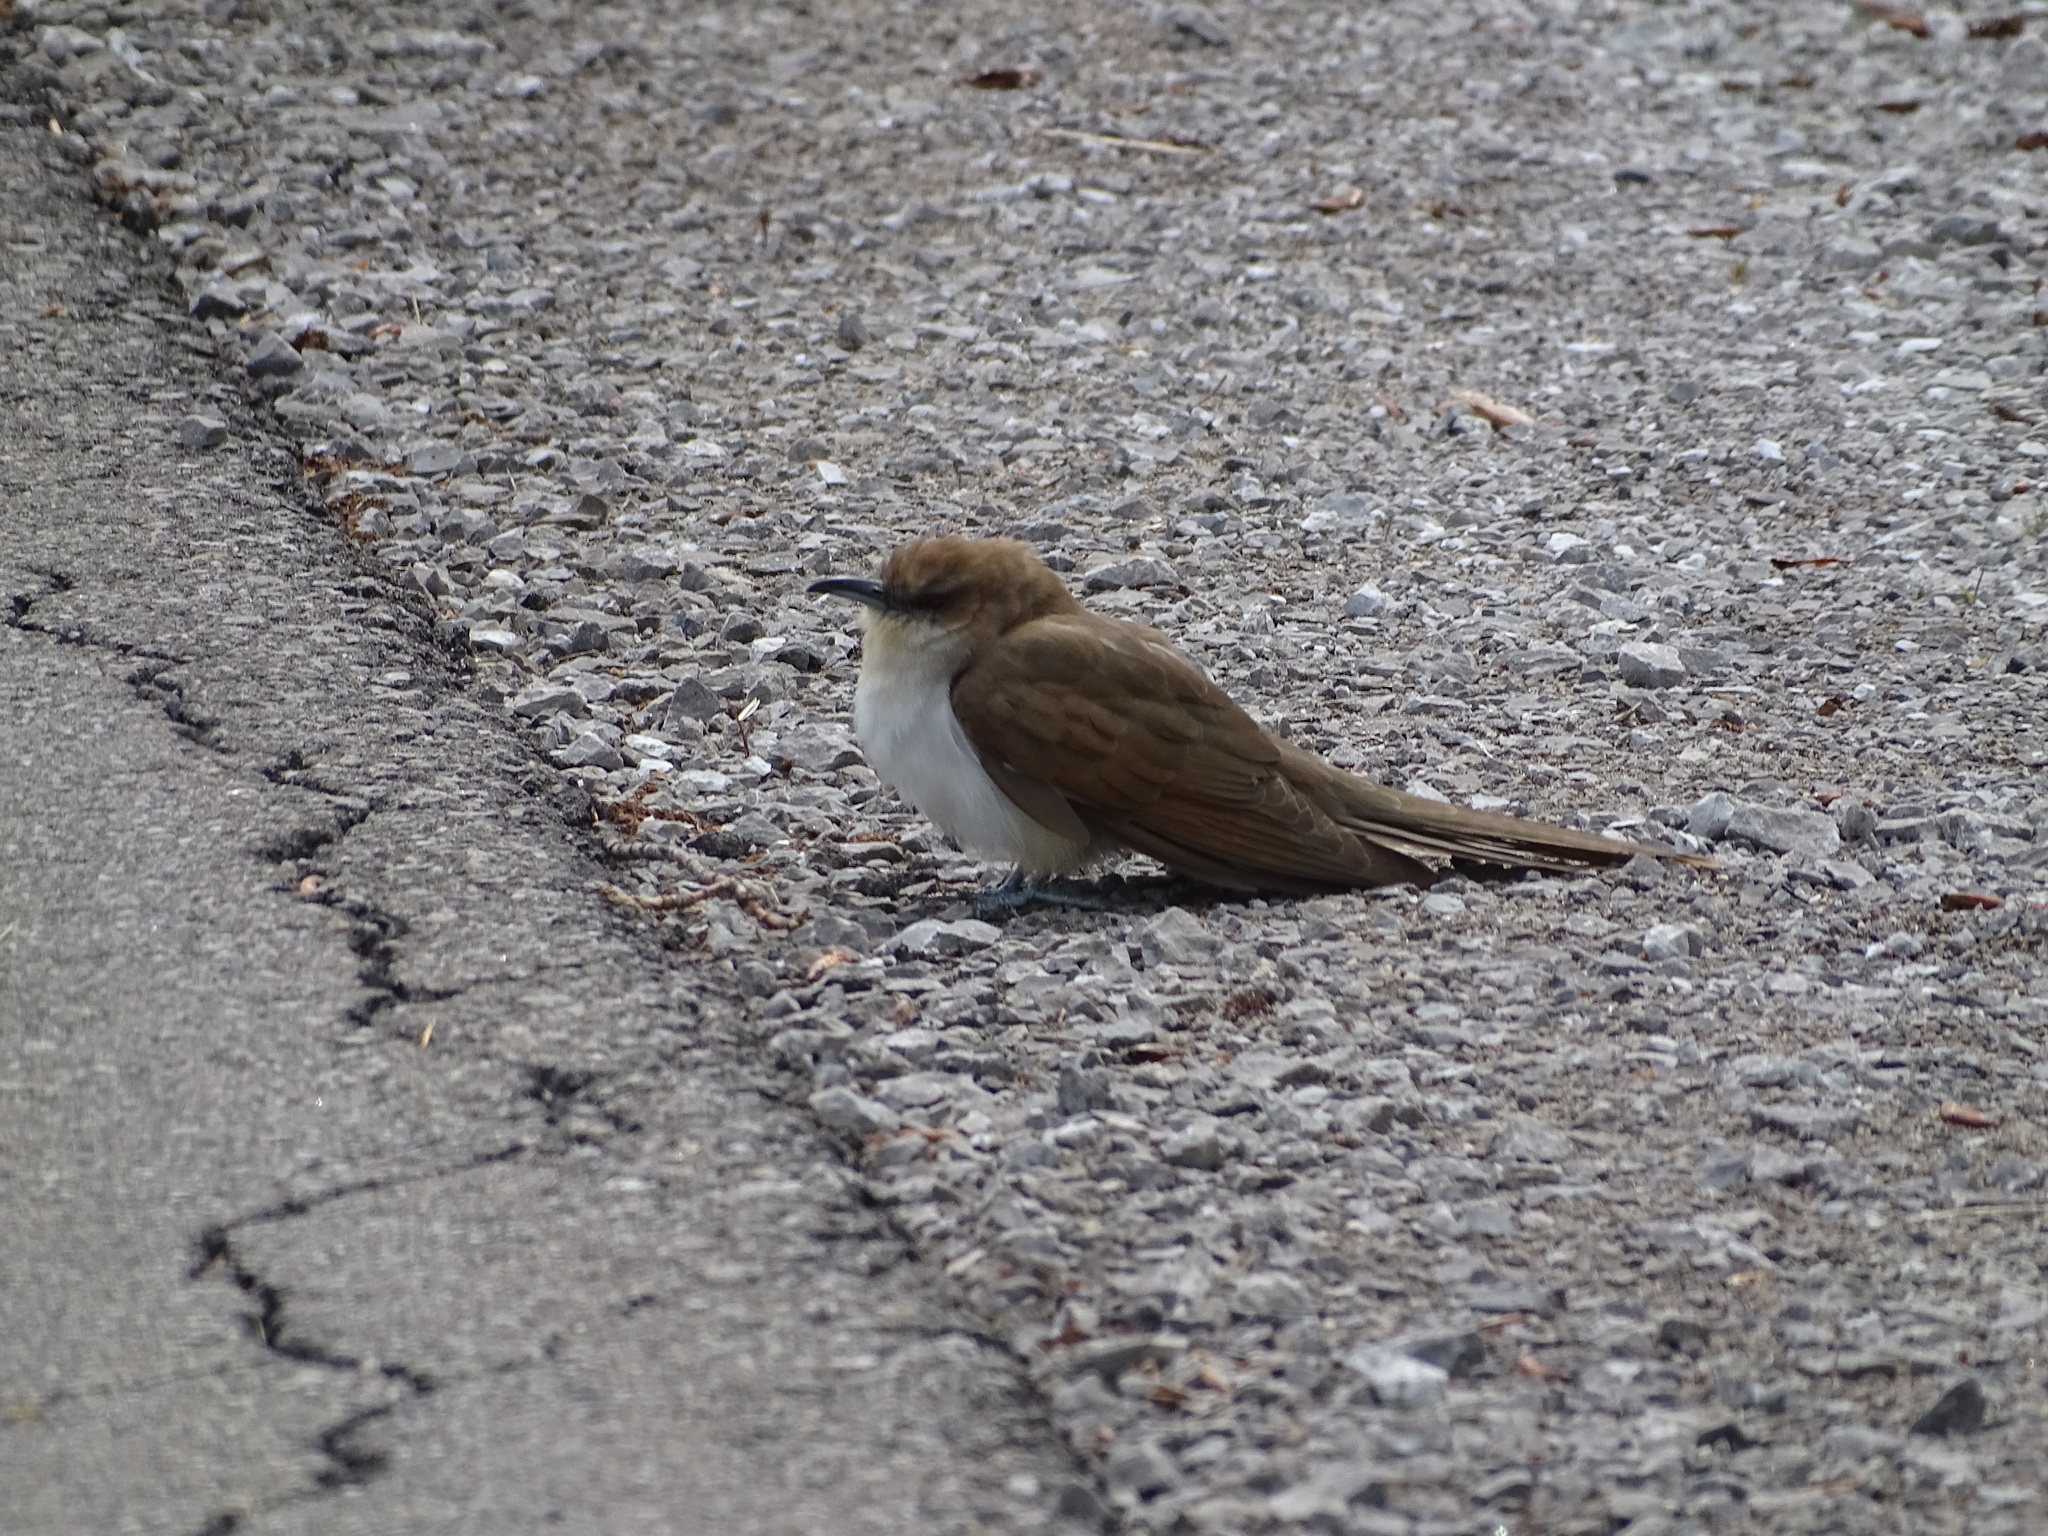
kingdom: Animalia
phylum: Chordata
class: Aves
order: Cuculiformes
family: Cuculidae
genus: Coccyzus
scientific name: Coccyzus erythropthalmus
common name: Black-billed cuckoo
